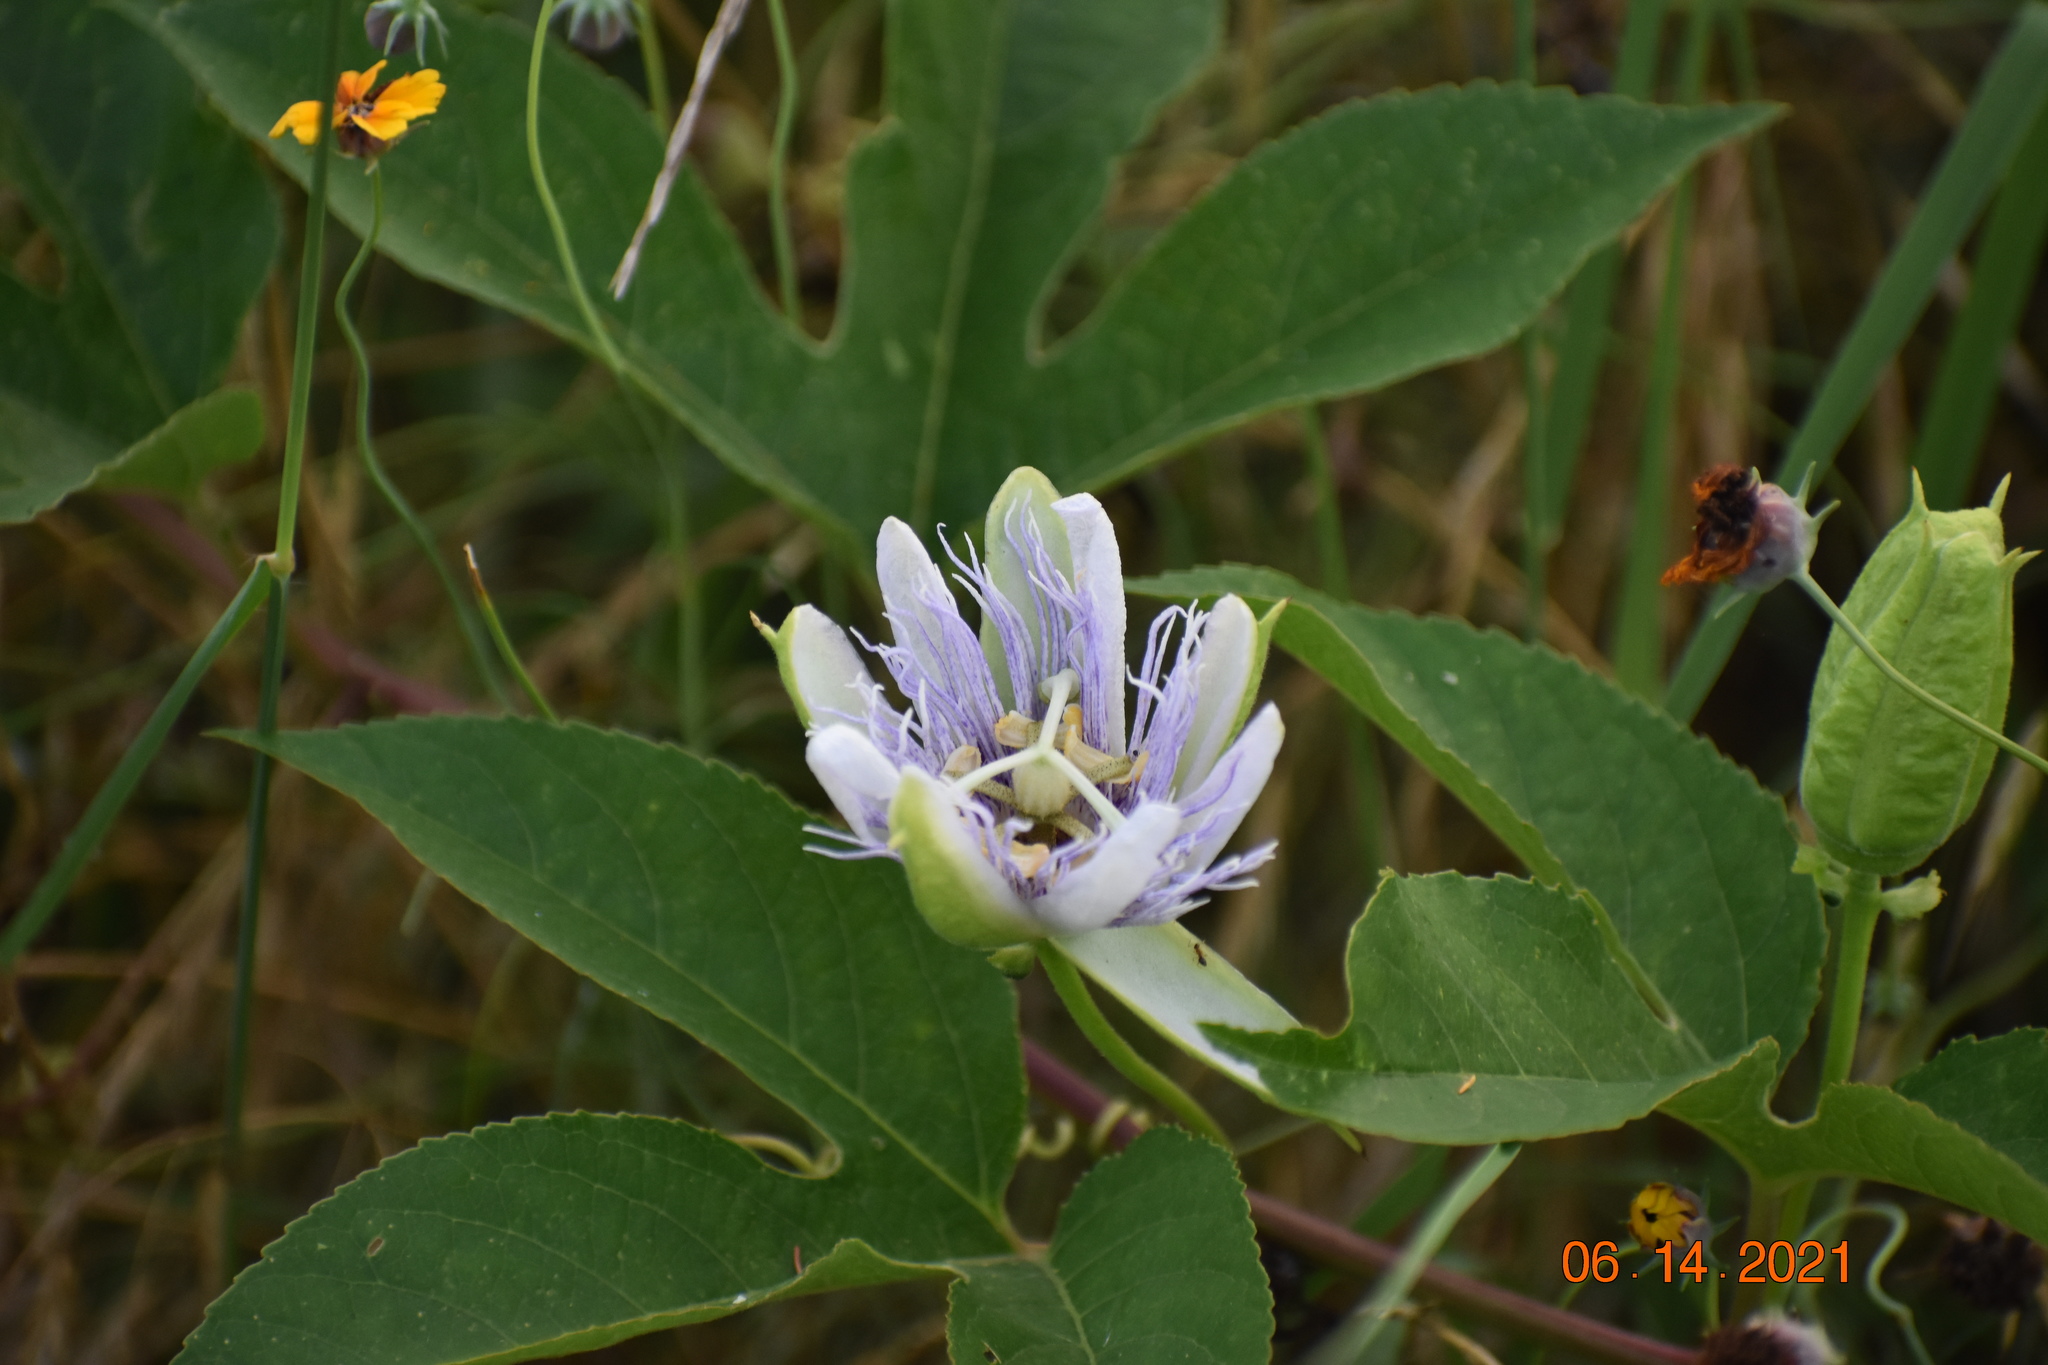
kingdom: Plantae
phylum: Tracheophyta
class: Magnoliopsida
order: Malpighiales
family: Passifloraceae
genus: Passiflora
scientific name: Passiflora incarnata
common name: Apricot-vine
